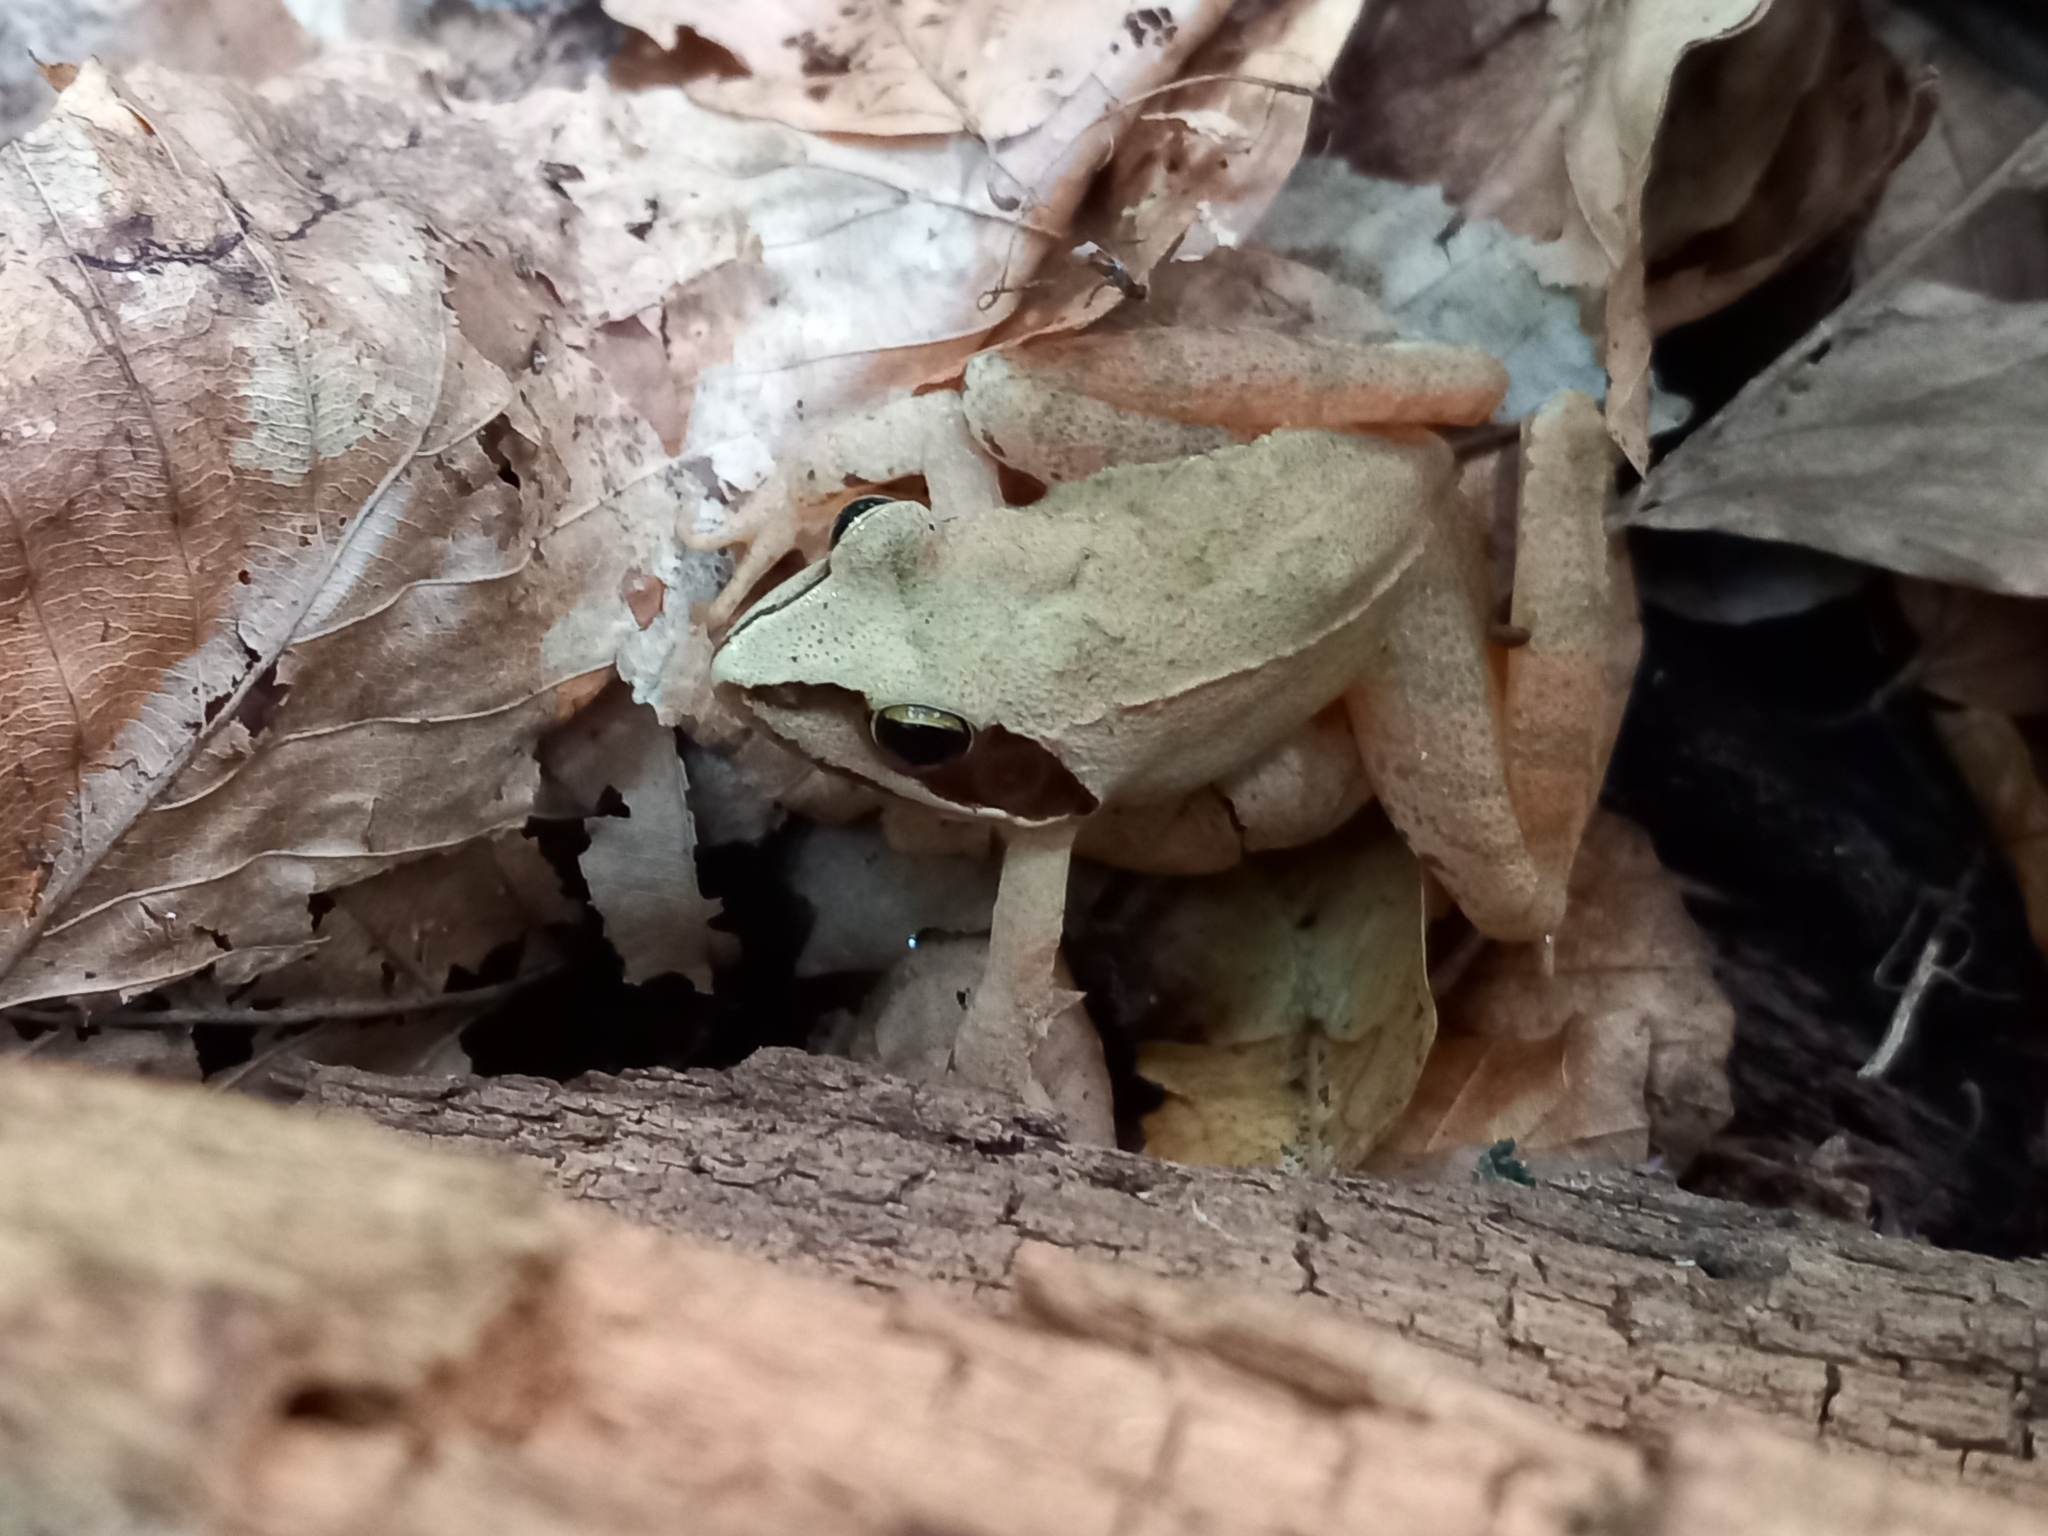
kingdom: Animalia
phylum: Chordata
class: Amphibia
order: Anura
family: Ranidae
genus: Rana
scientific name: Rana dalmatina
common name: Agile frog
